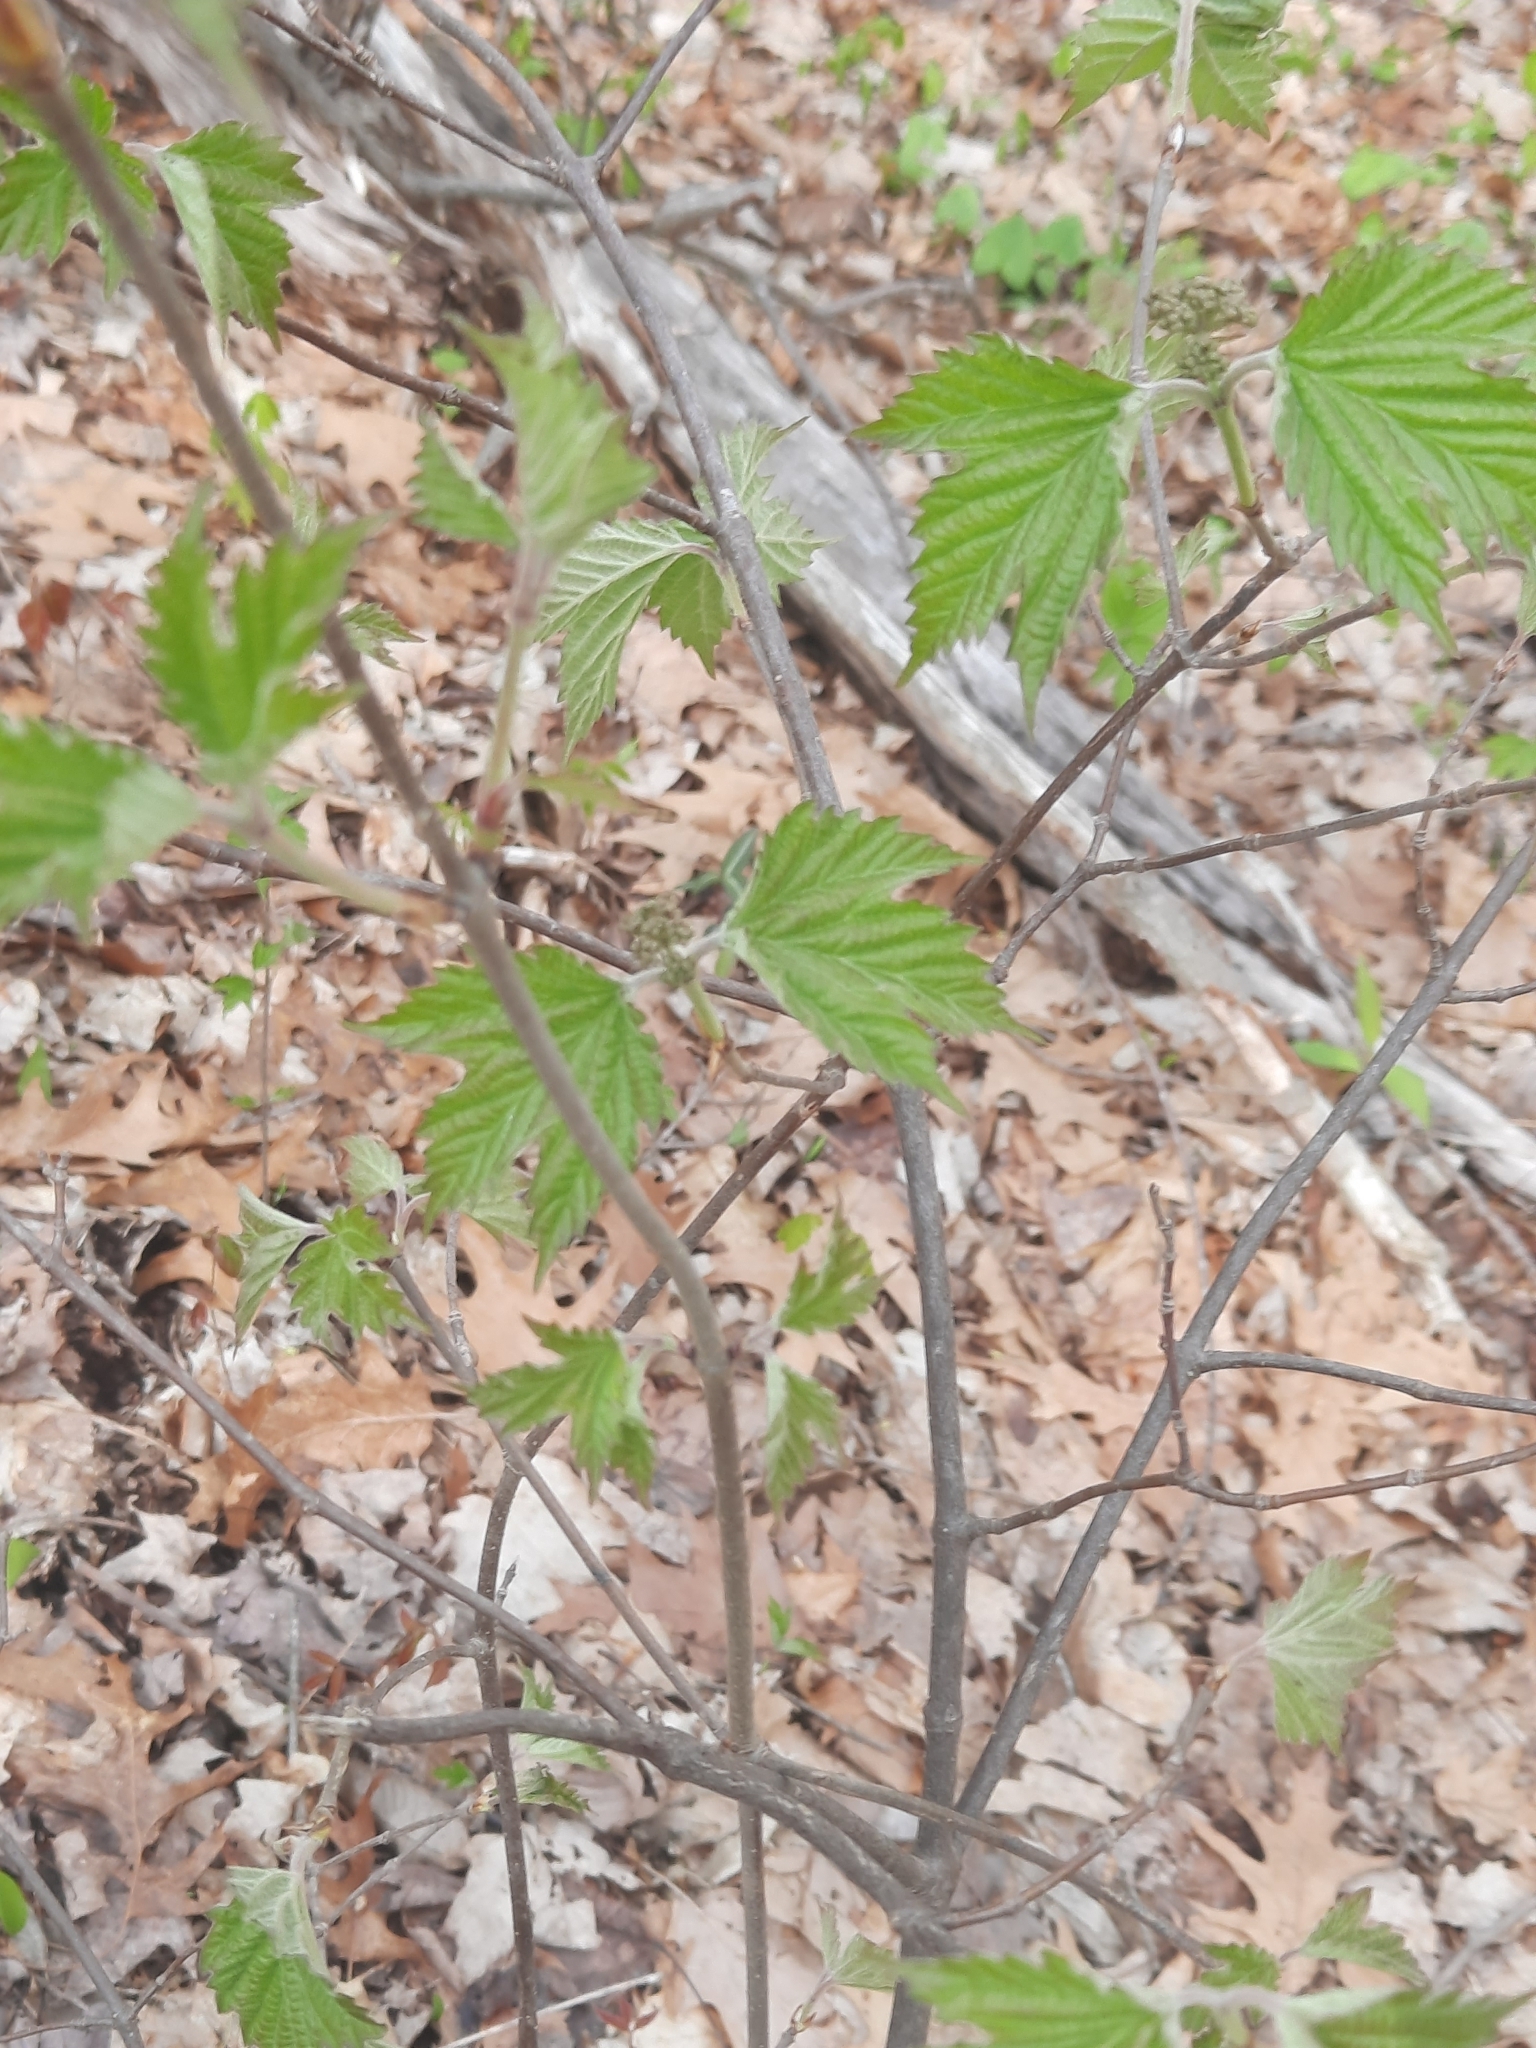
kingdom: Plantae
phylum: Tracheophyta
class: Magnoliopsida
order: Dipsacales
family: Viburnaceae
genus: Viburnum
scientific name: Viburnum acerifolium
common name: Dockmackie
